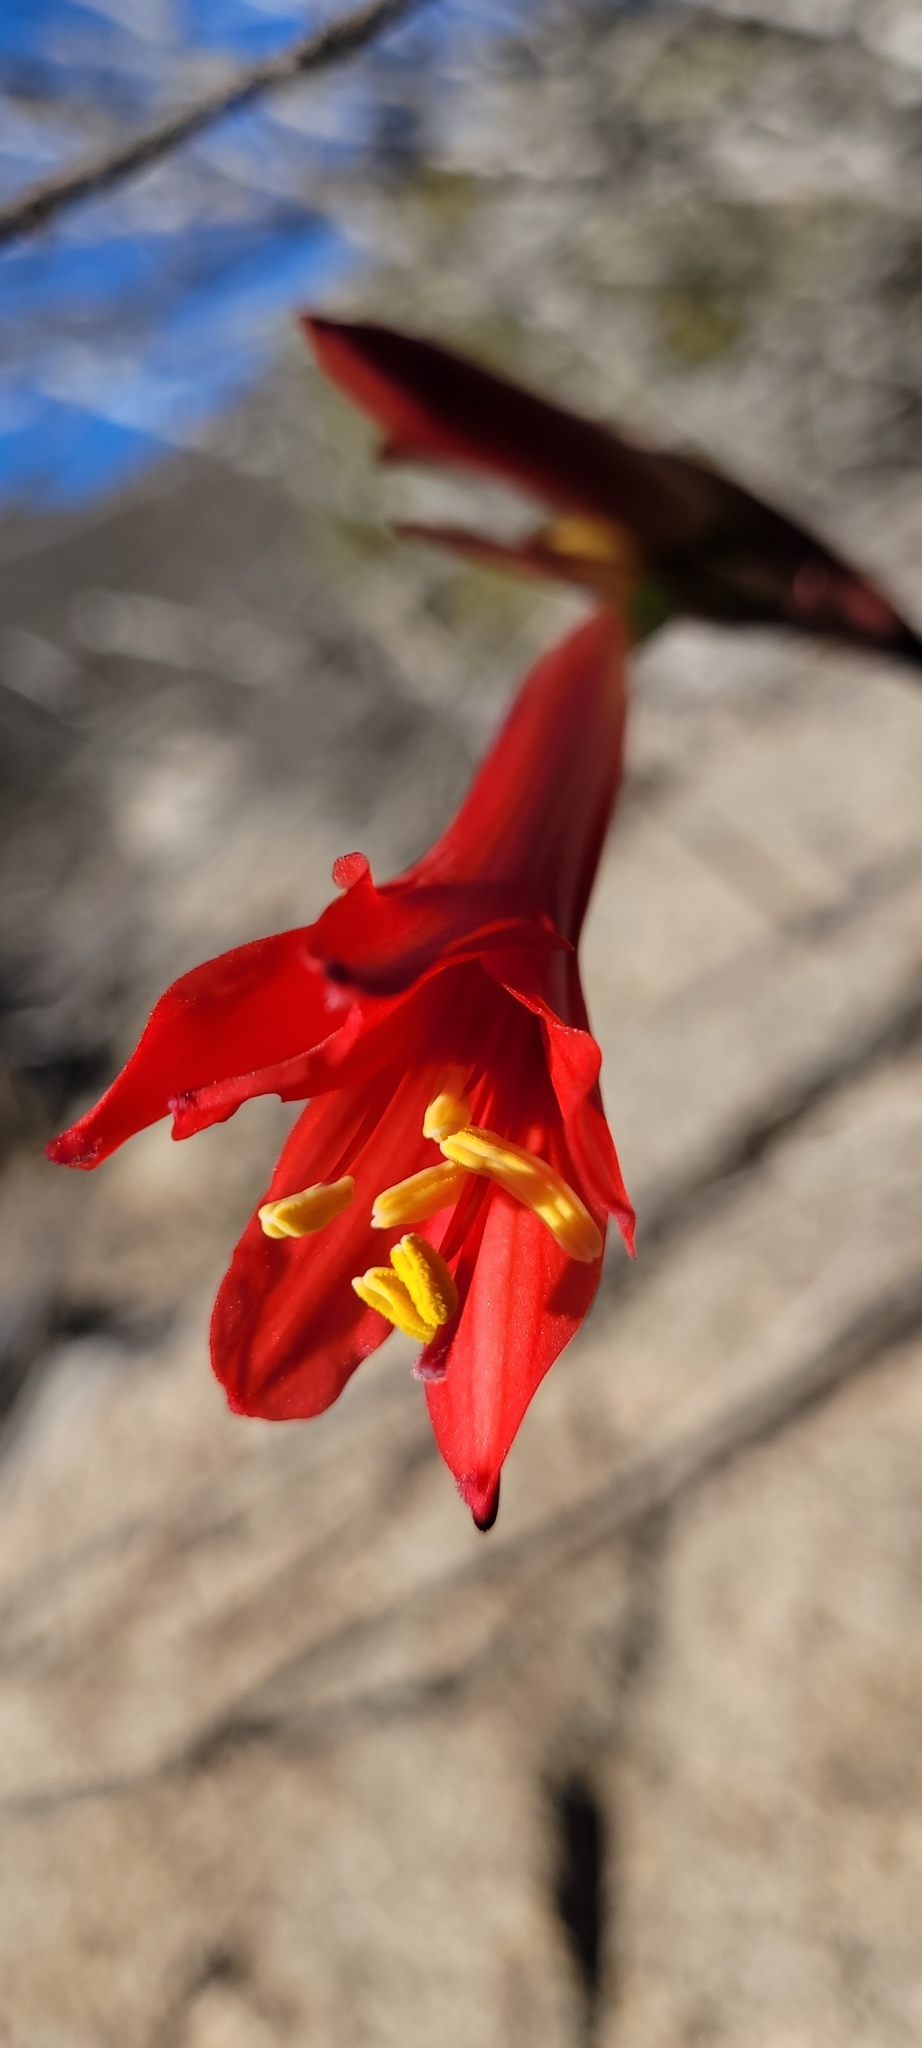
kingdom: Plantae
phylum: Tracheophyta
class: Liliopsida
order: Asparagales
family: Amaryllidaceae
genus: Zephyranthes
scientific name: Zephyranthes phycelloides
